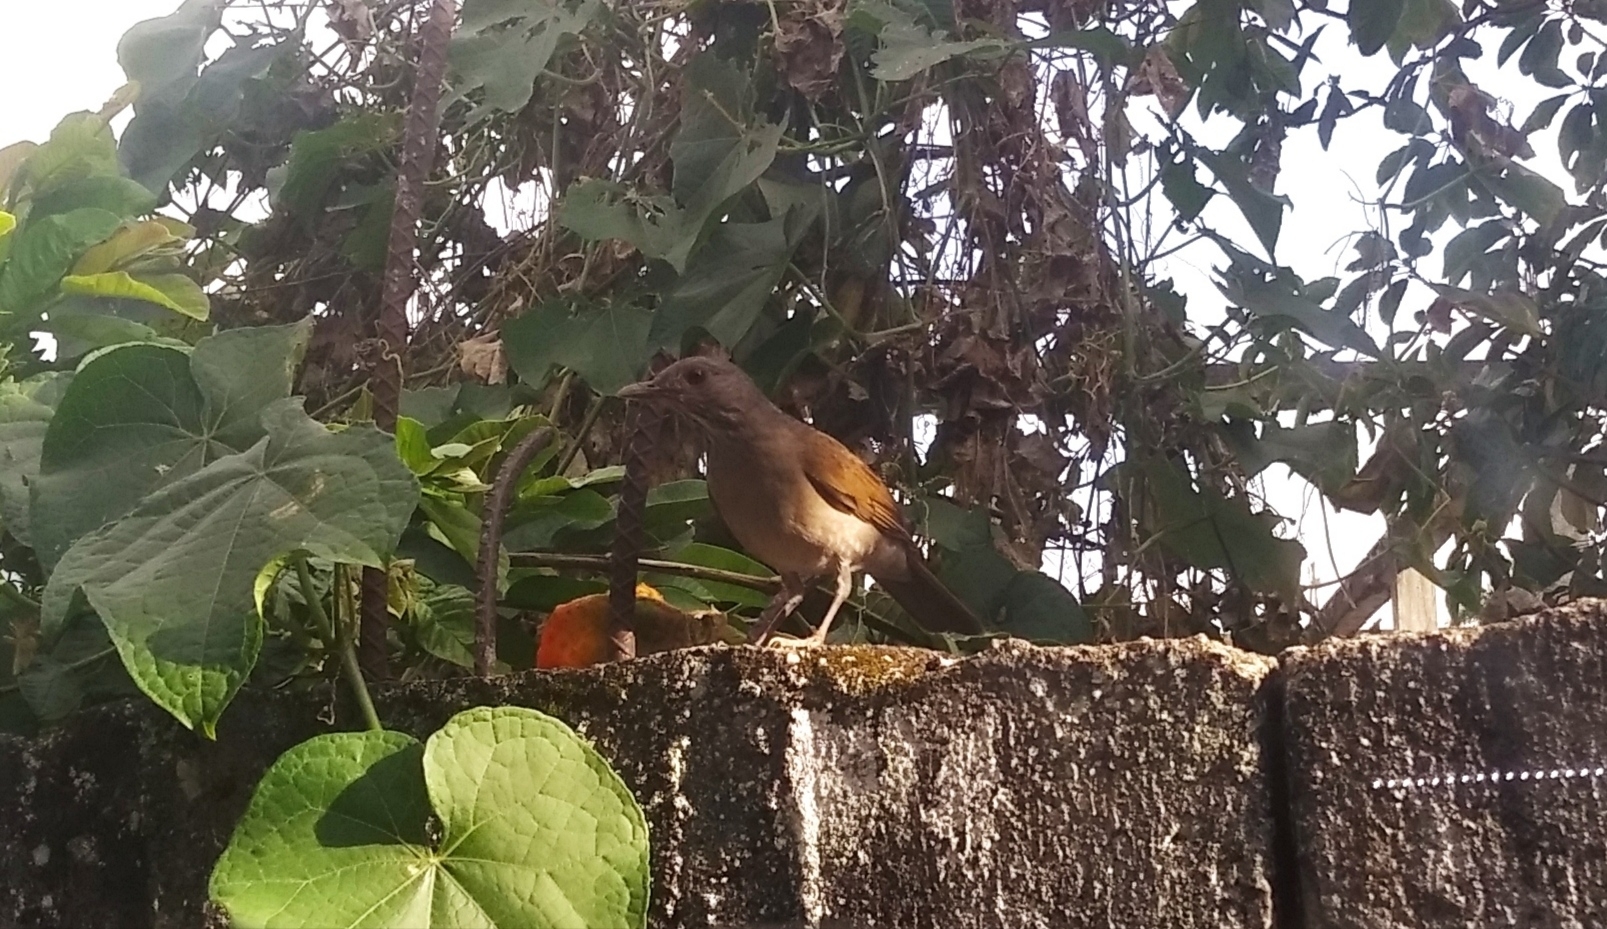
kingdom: Animalia
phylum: Chordata
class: Aves
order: Passeriformes
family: Turdidae
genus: Turdus
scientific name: Turdus leucomelas
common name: Pale-breasted thrush
